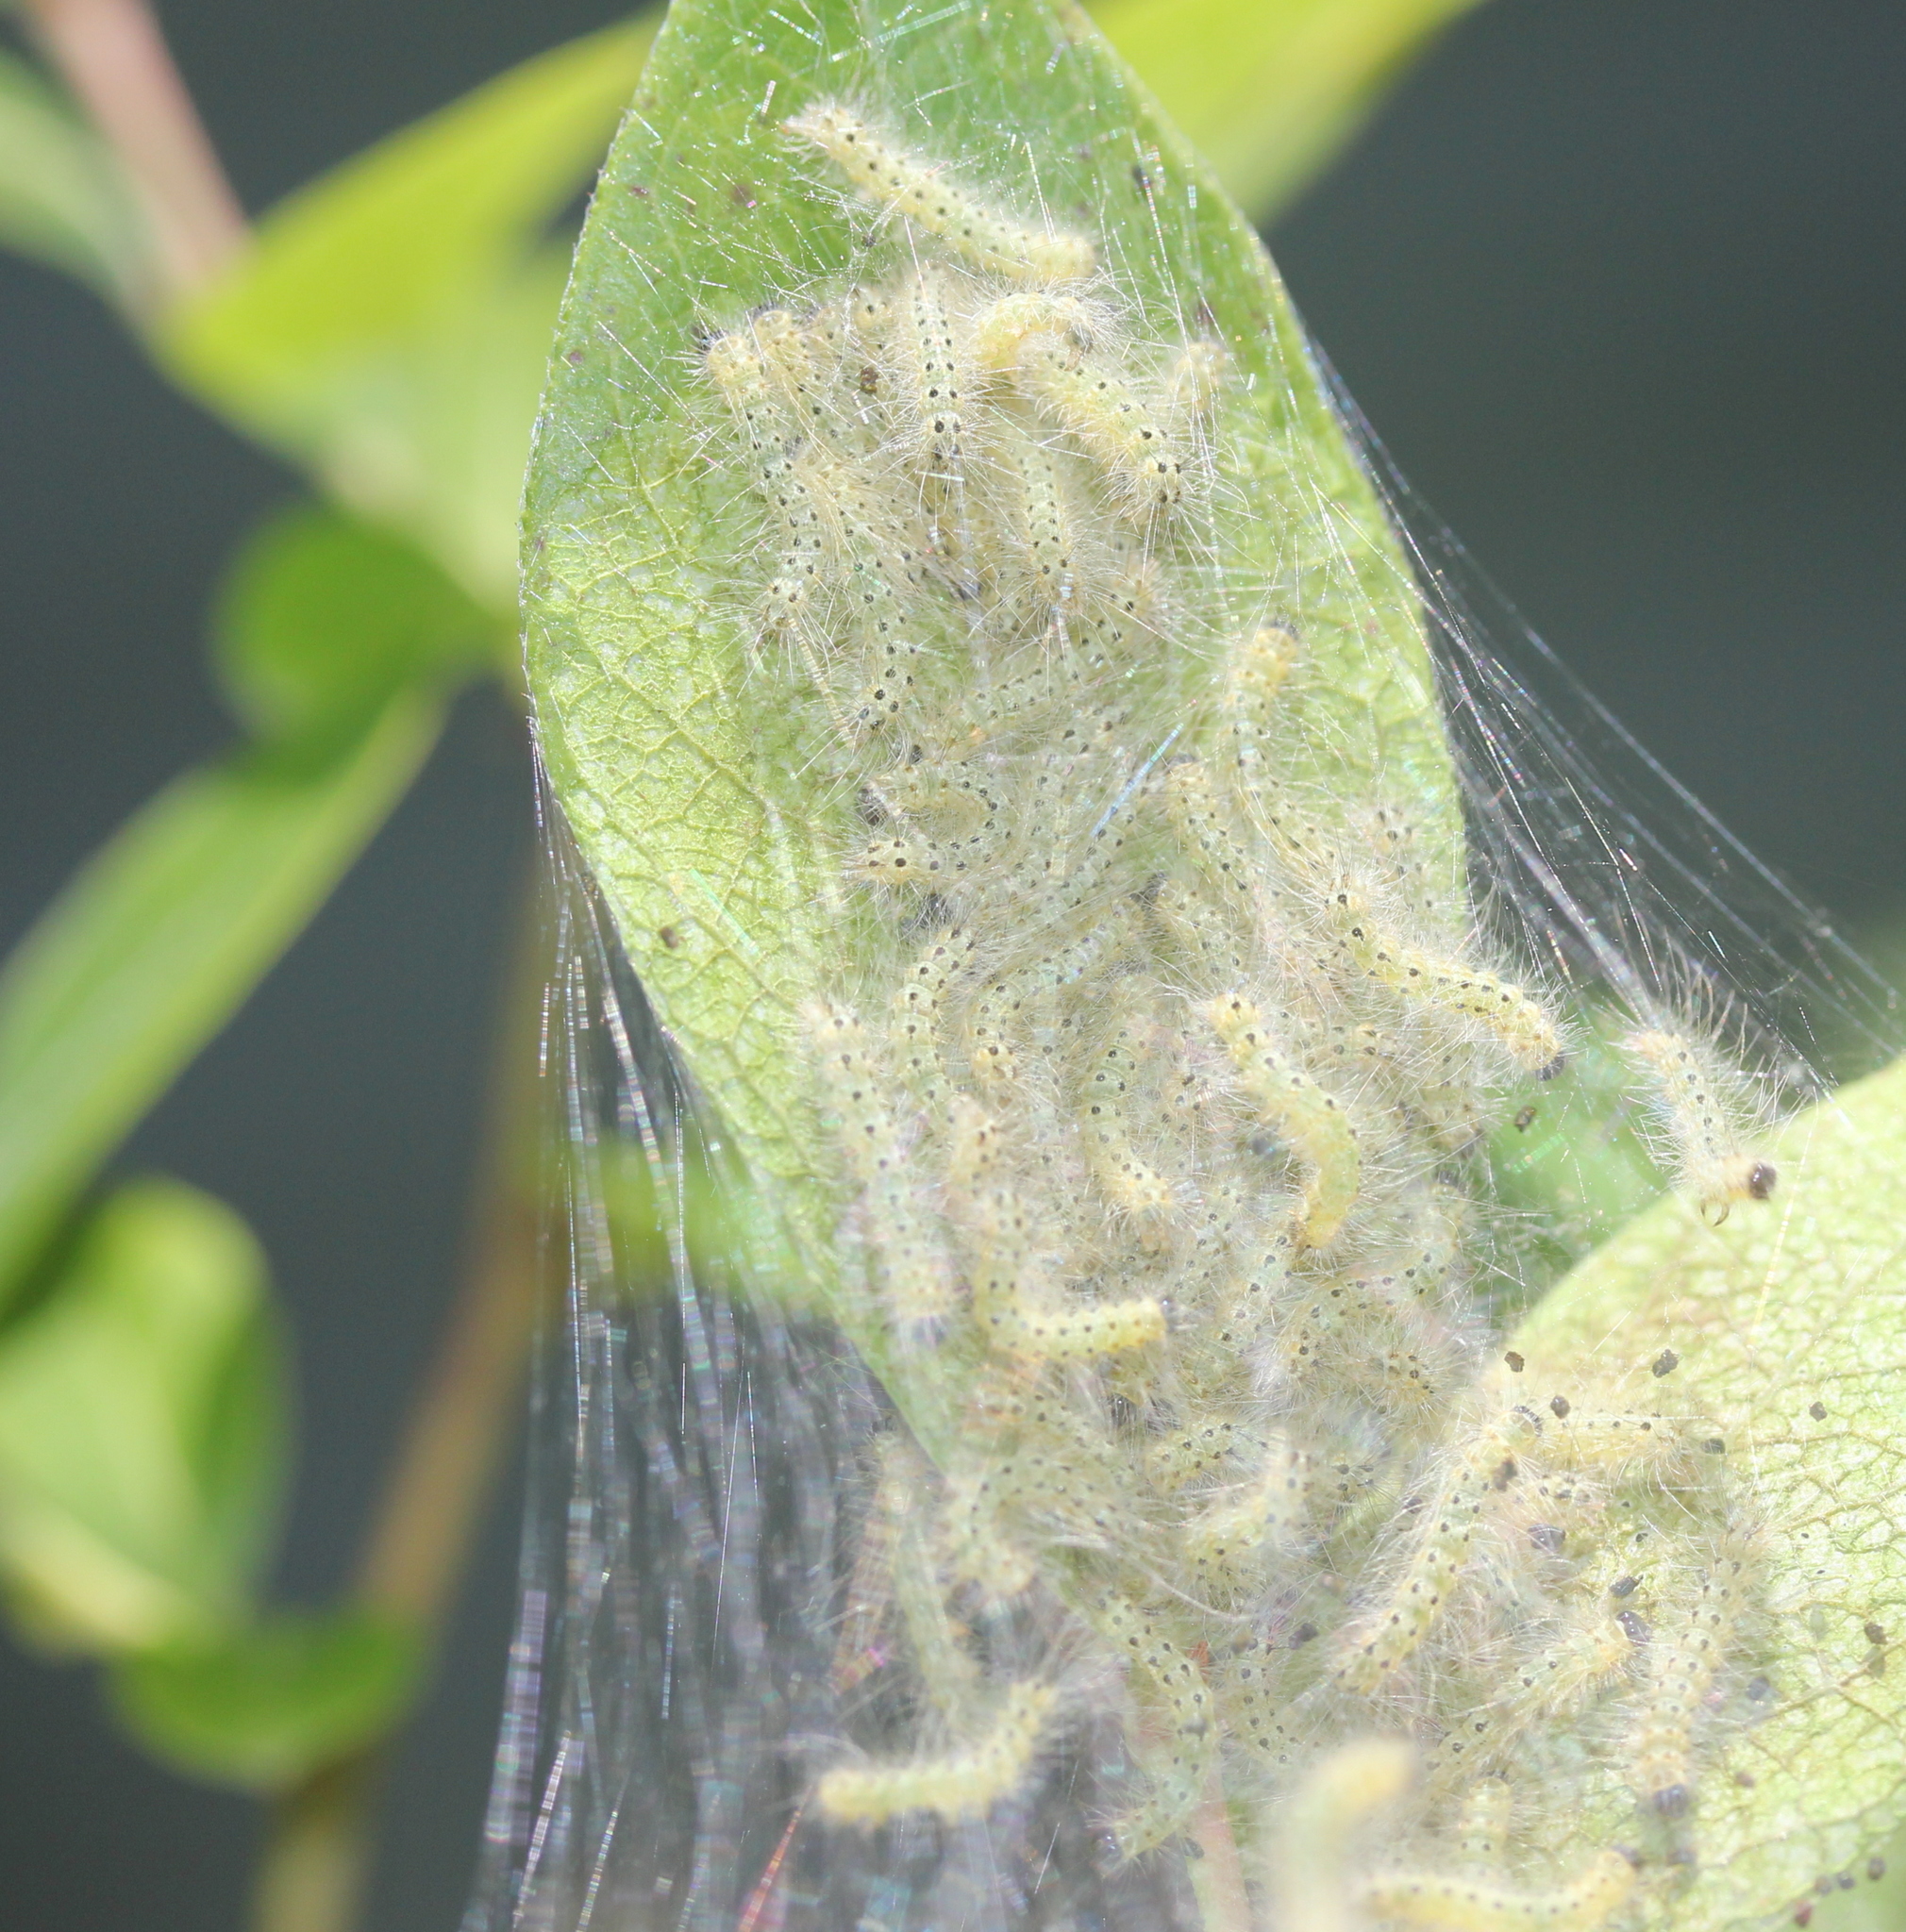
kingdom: Animalia
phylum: Arthropoda
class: Insecta
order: Lepidoptera
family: Erebidae
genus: Hyphantria
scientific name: Hyphantria cunea
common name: American white moth
